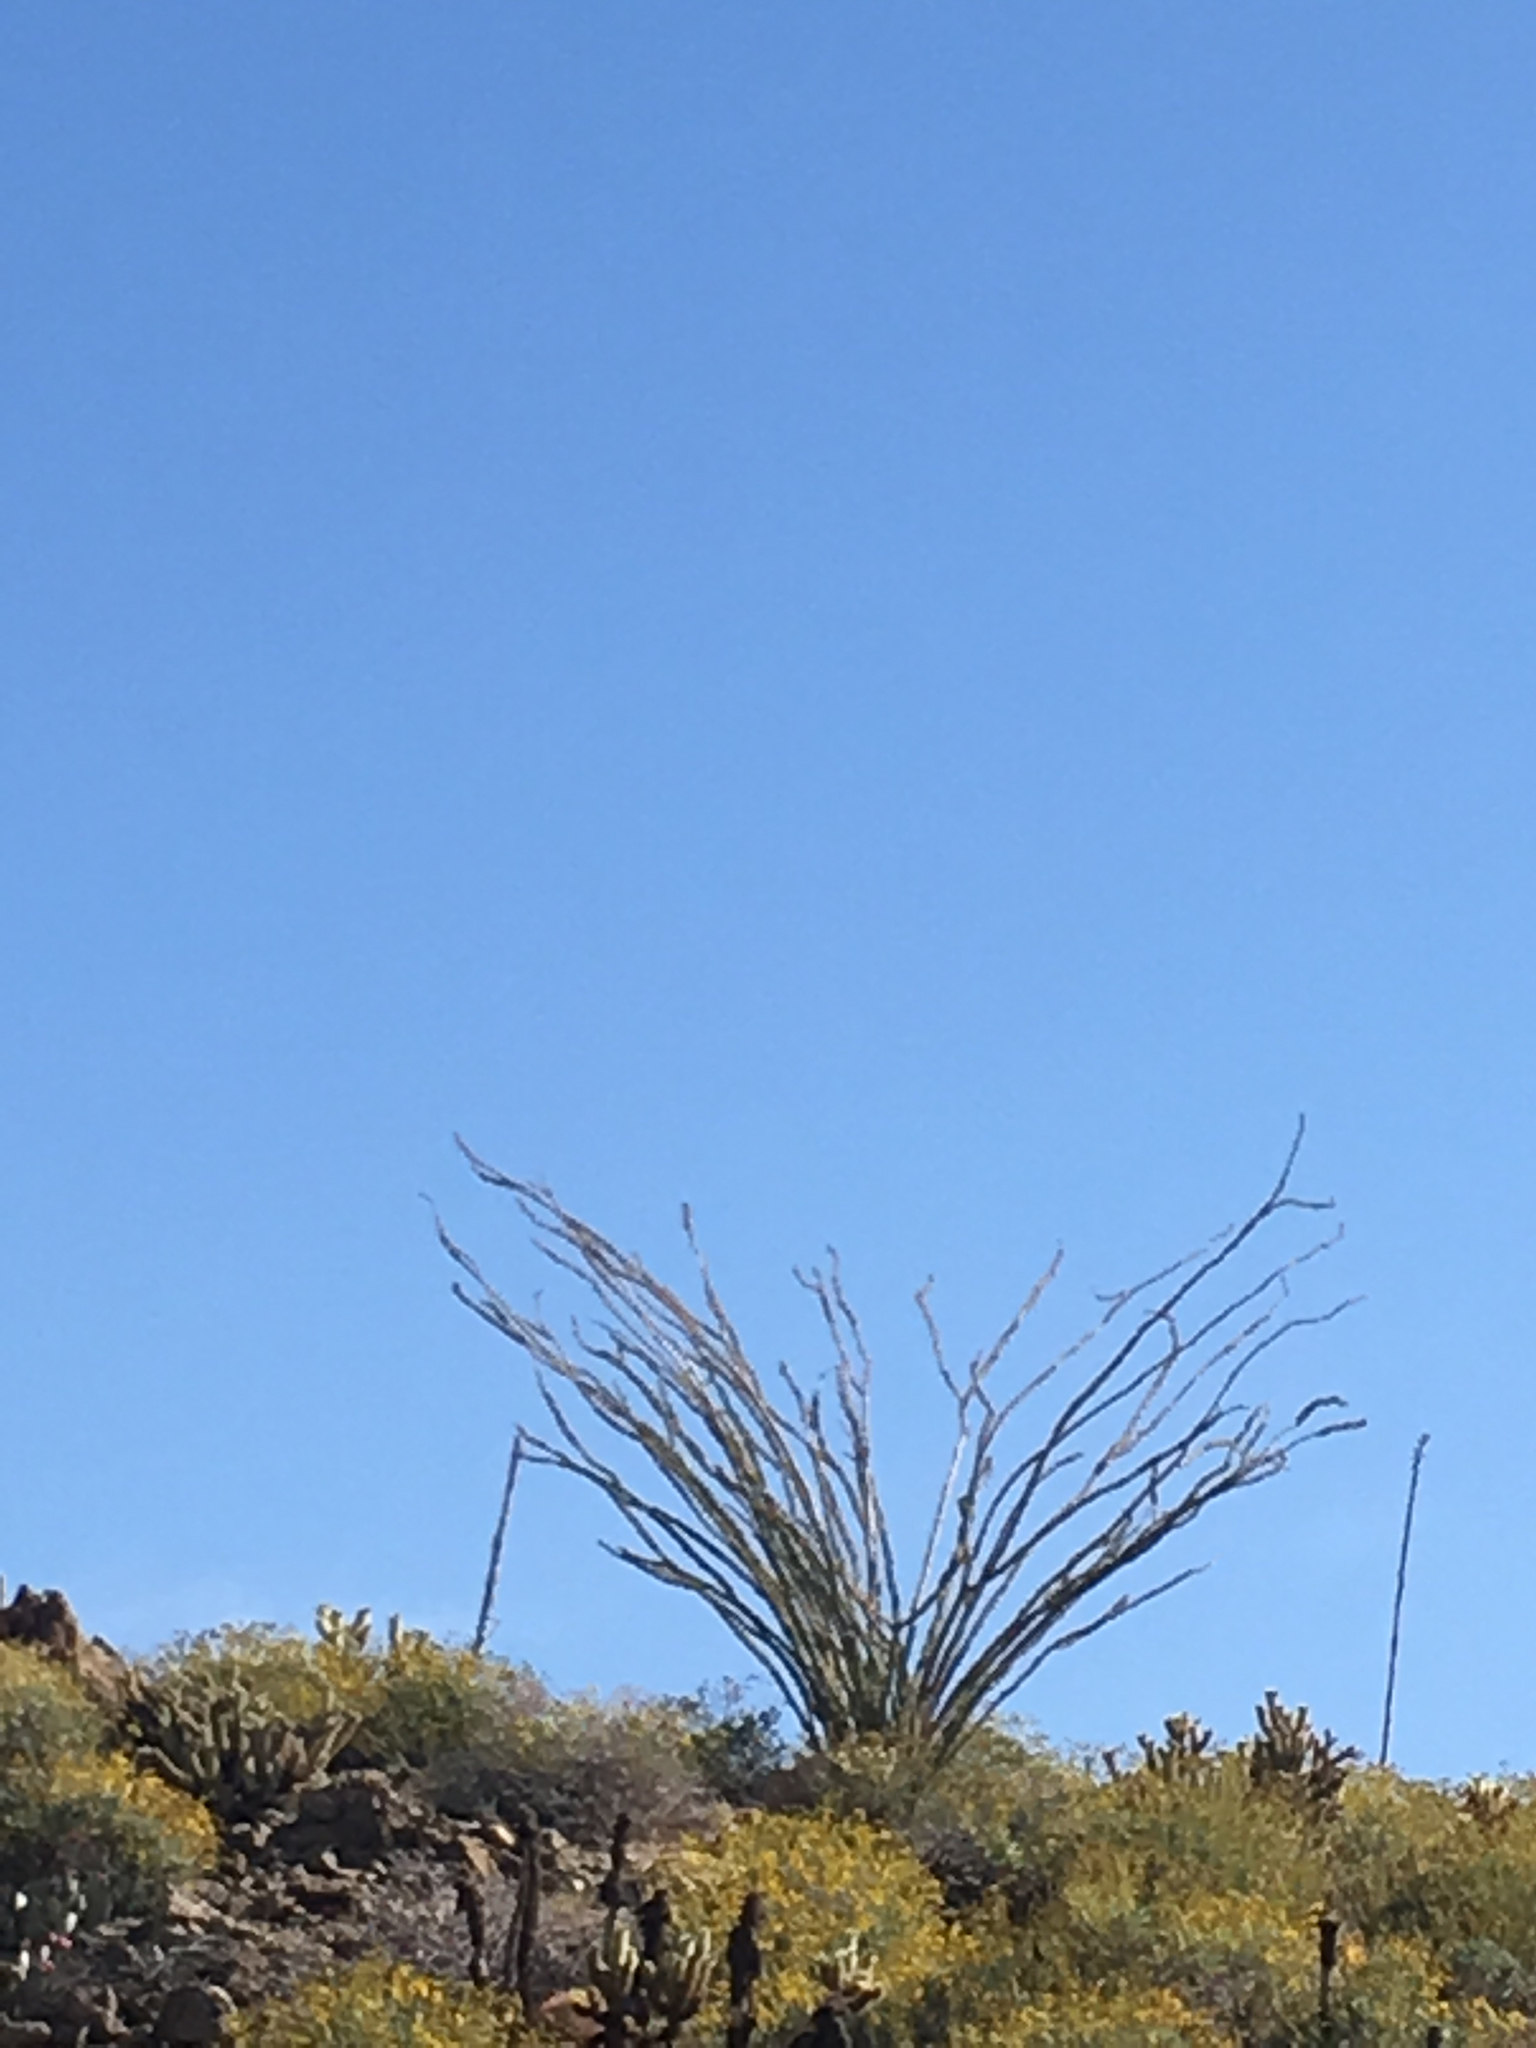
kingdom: Plantae
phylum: Tracheophyta
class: Magnoliopsida
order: Ericales
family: Fouquieriaceae
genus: Fouquieria
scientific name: Fouquieria splendens
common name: Vine-cactus
